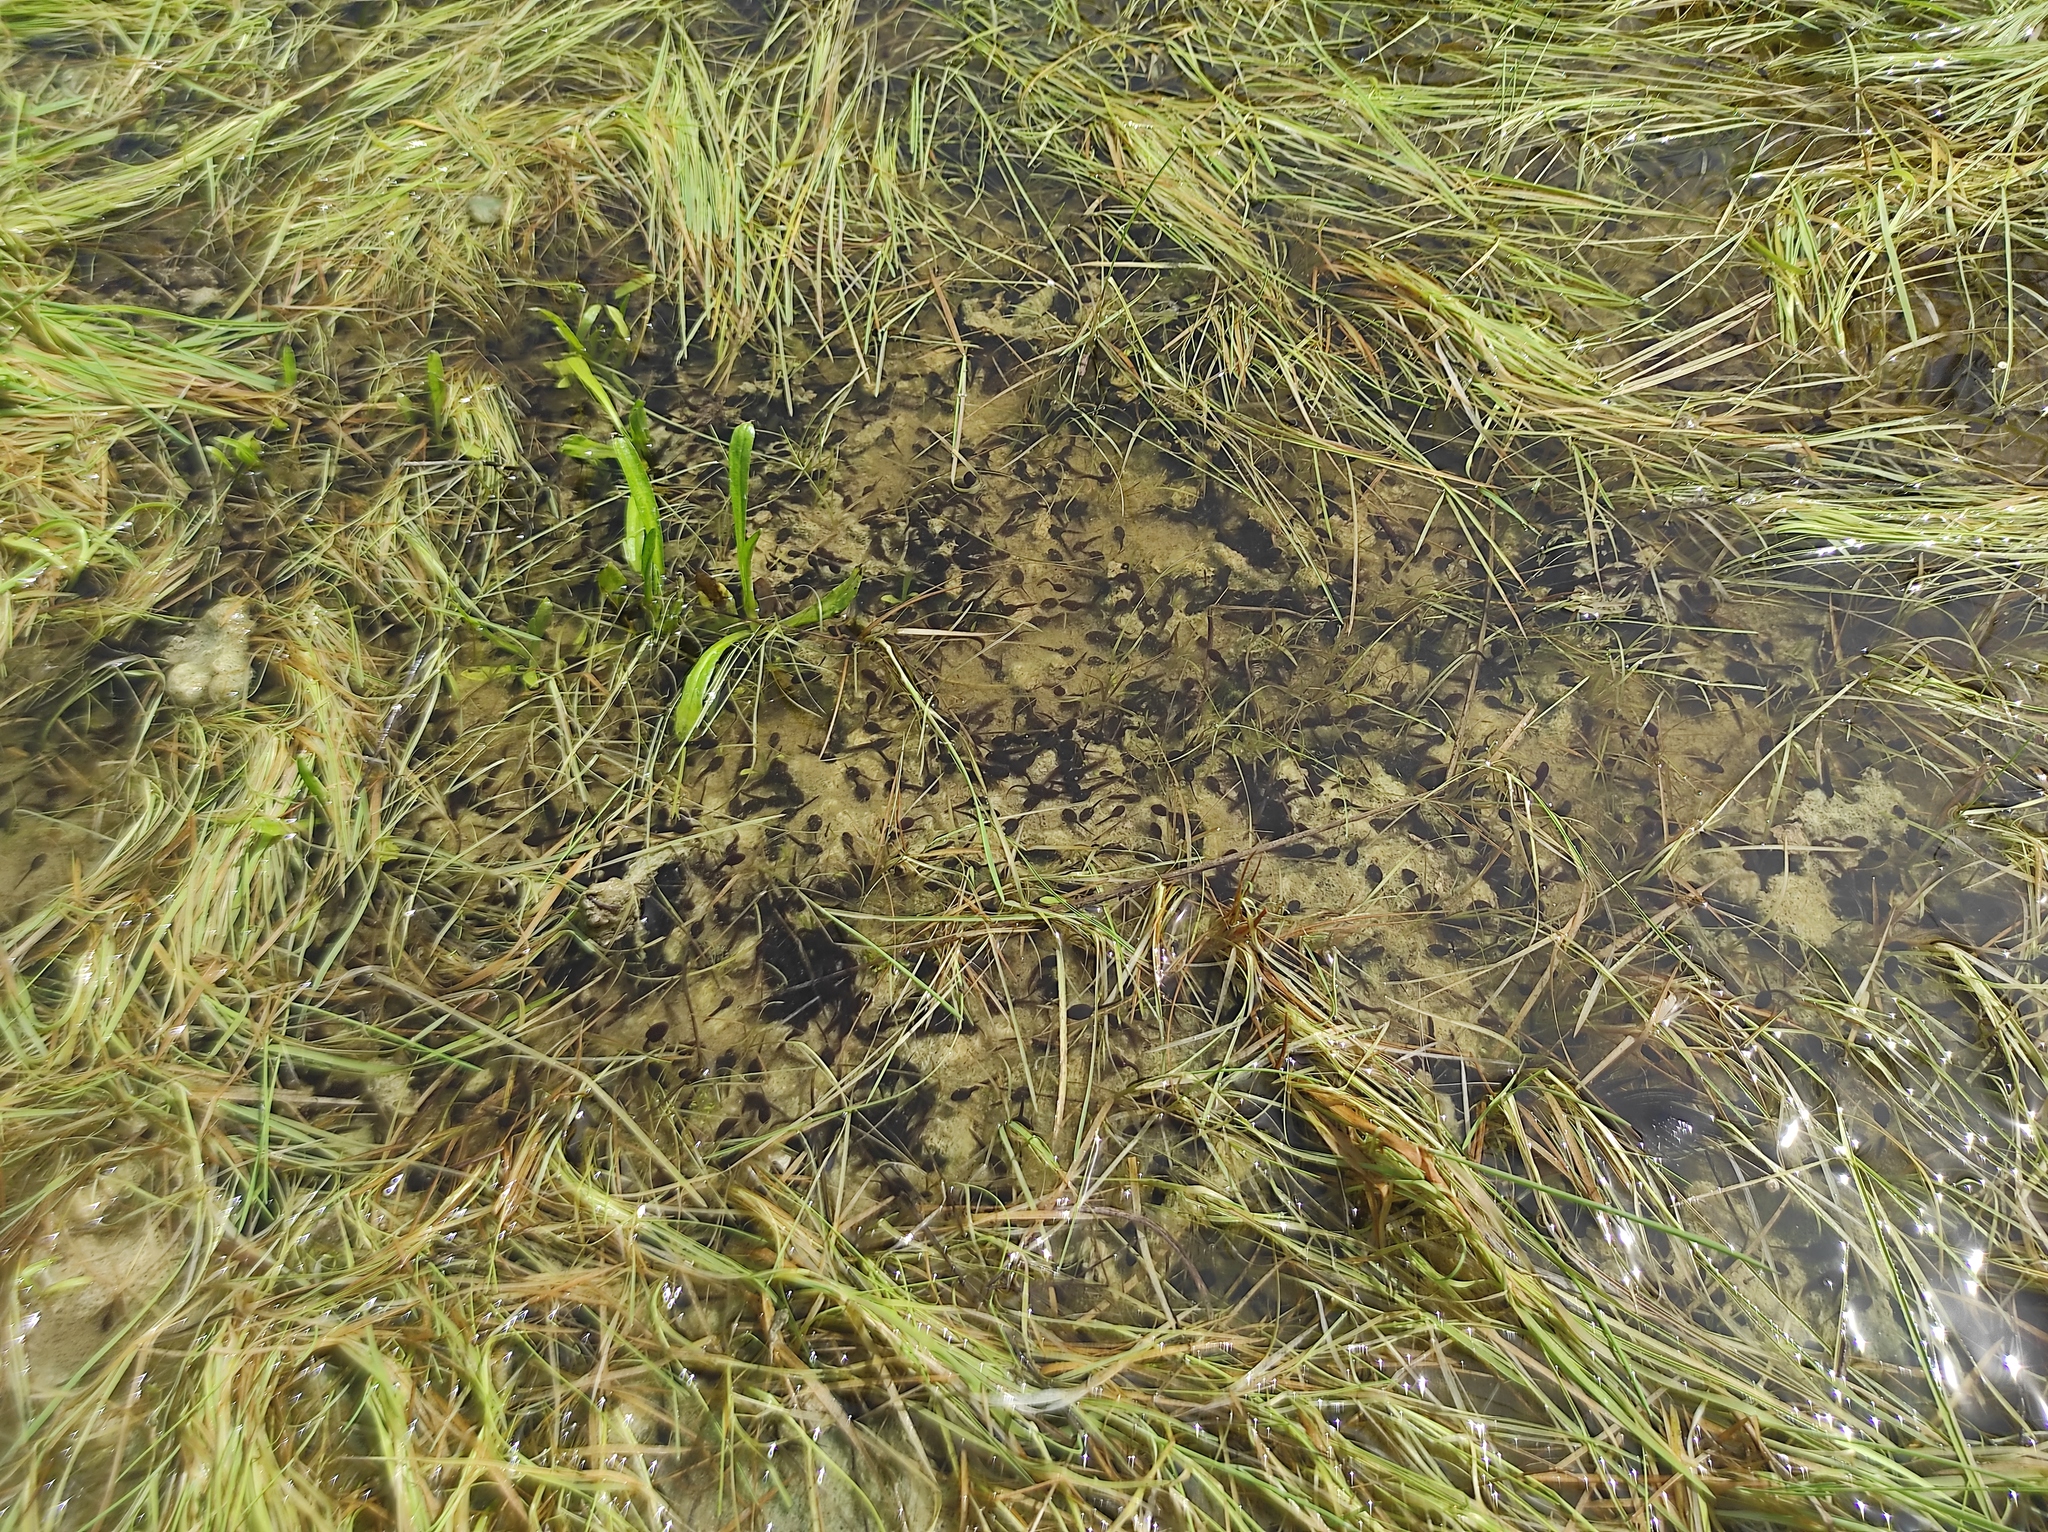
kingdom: Animalia
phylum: Chordata
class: Amphibia
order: Anura
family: Bufonidae
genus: Epidalea
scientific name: Epidalea calamita
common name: Natterjack toad
